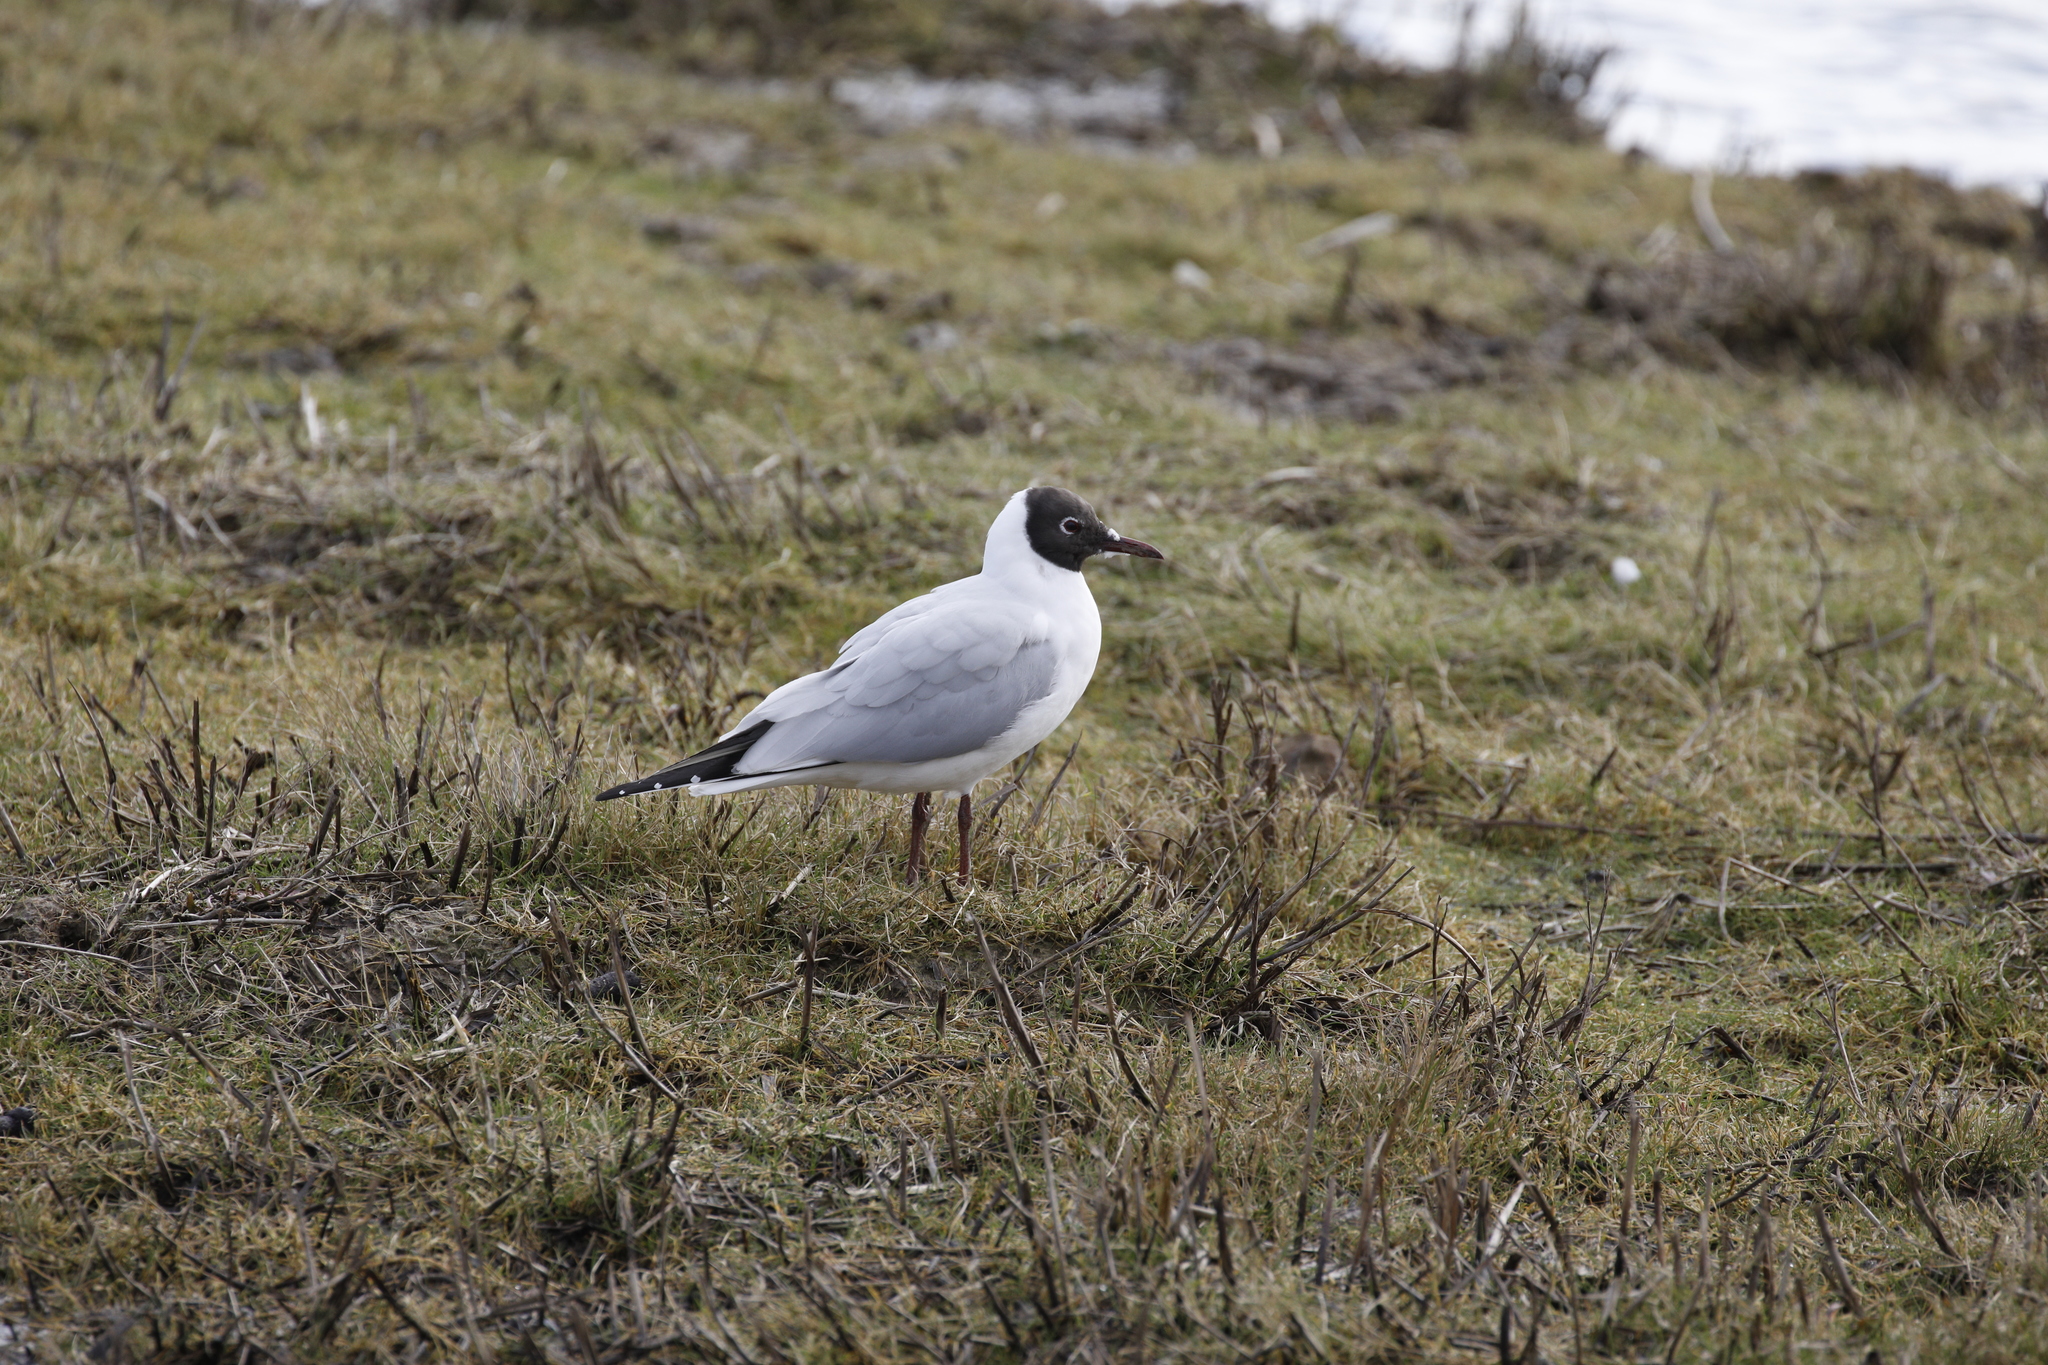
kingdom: Animalia
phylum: Chordata
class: Aves
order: Charadriiformes
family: Laridae
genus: Chroicocephalus
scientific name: Chroicocephalus ridibundus
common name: Black-headed gull
